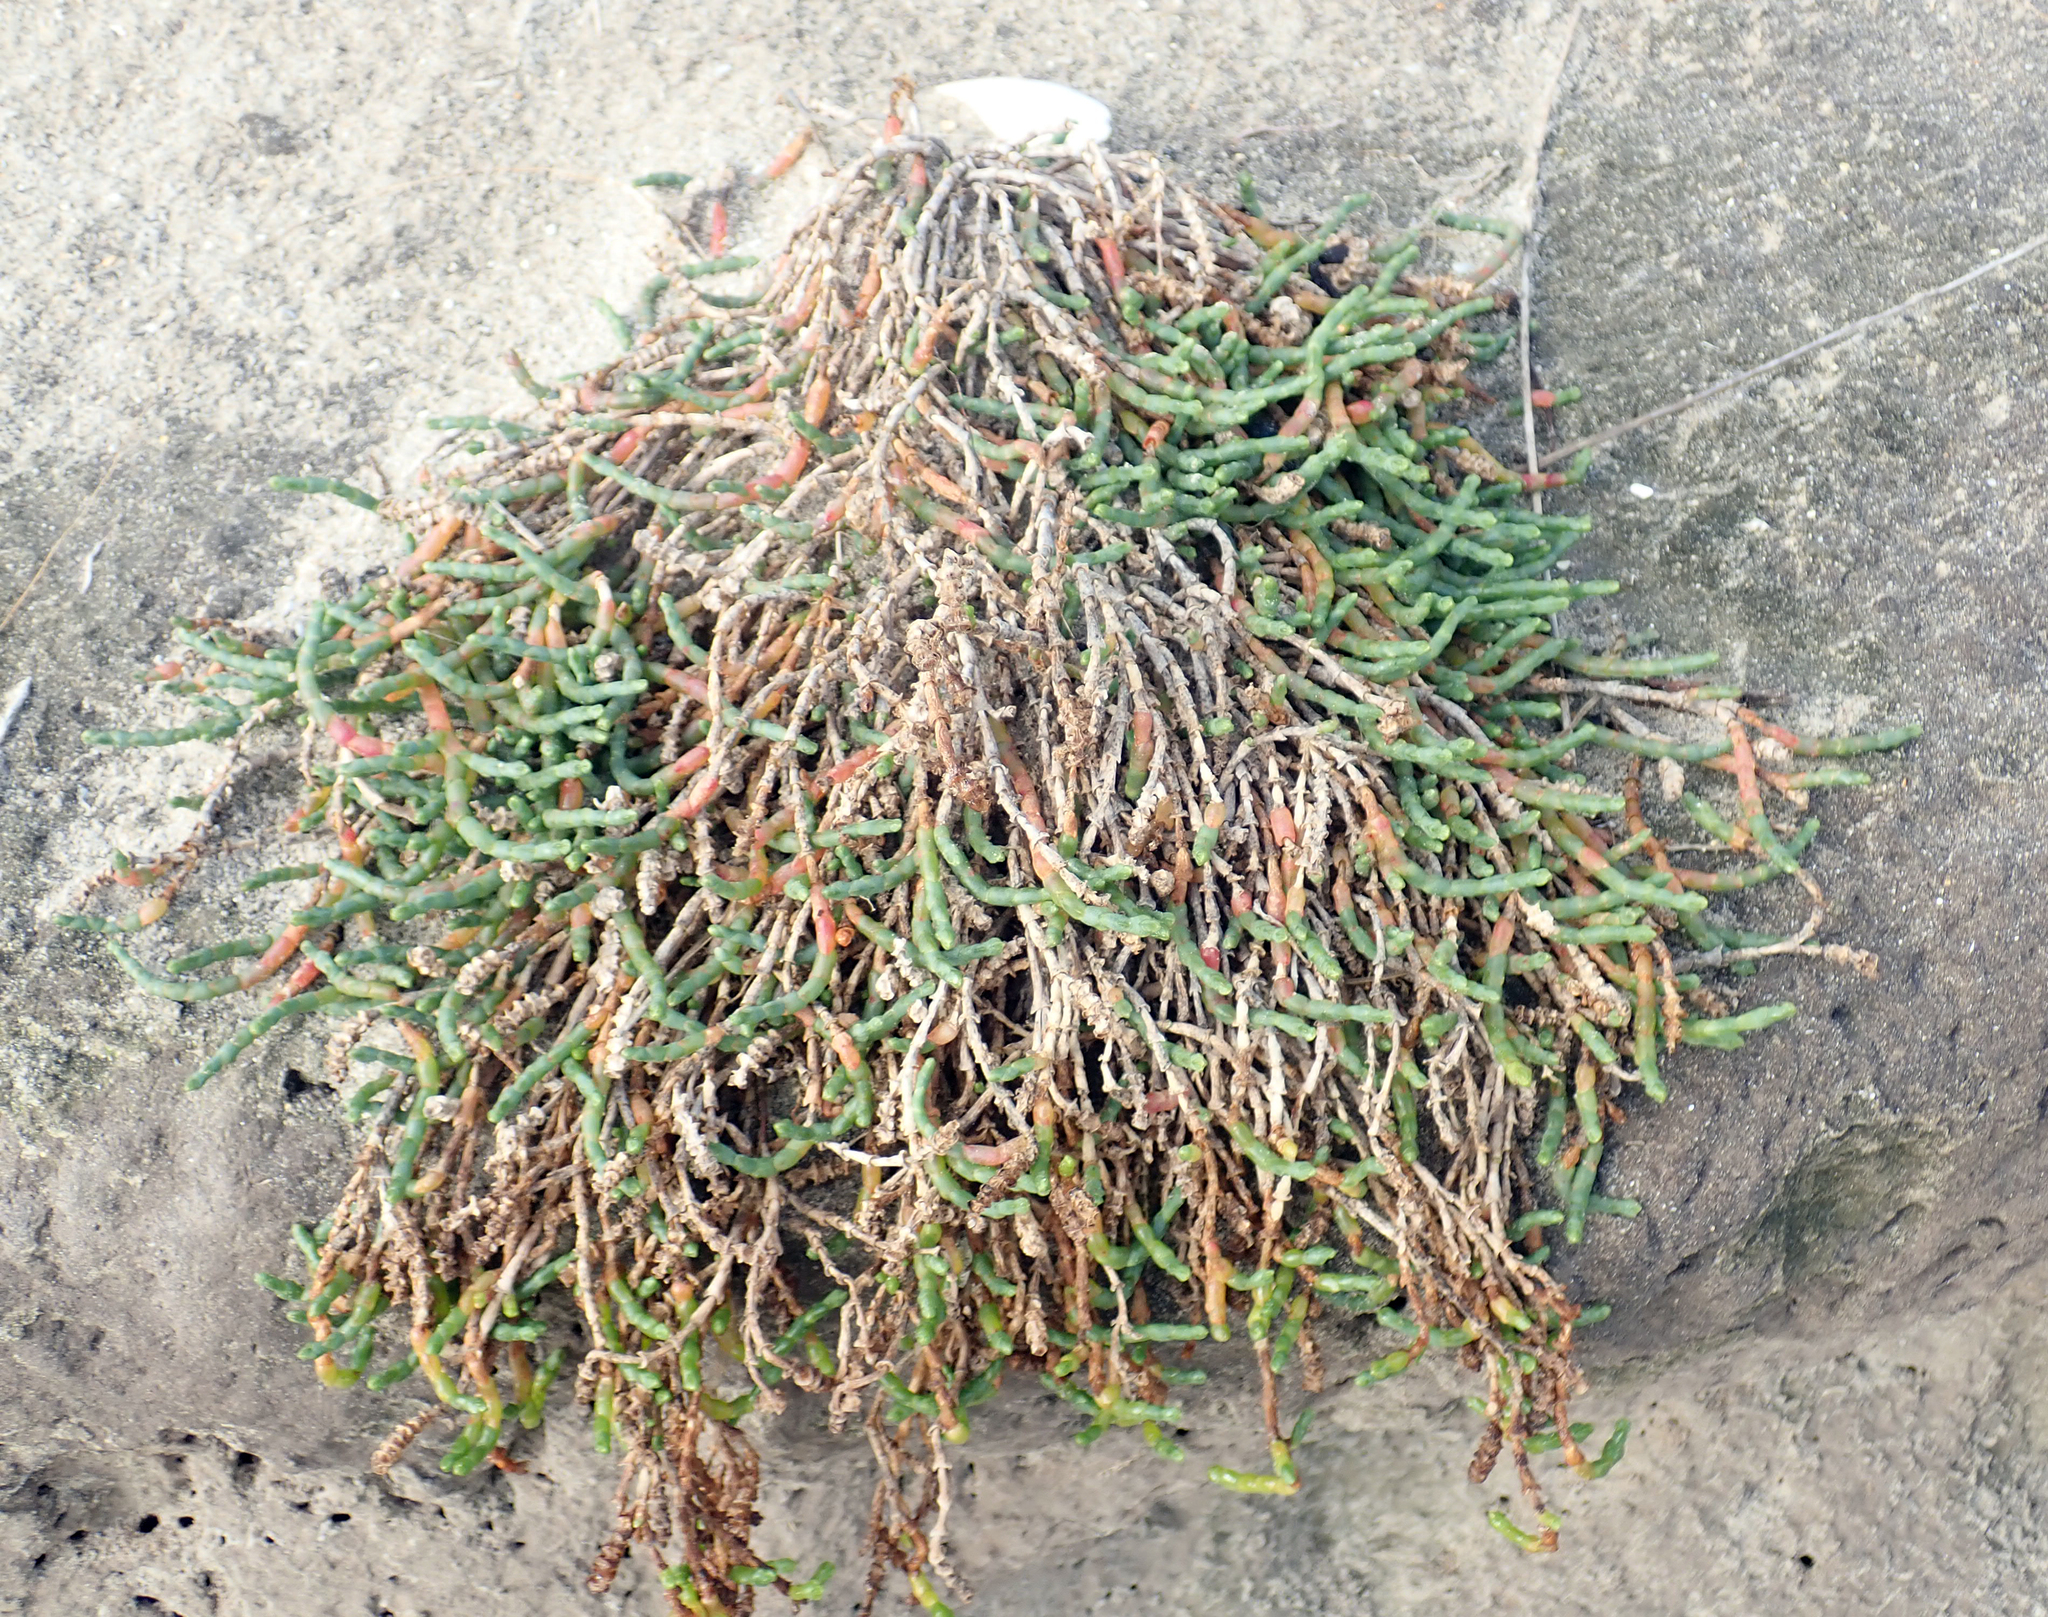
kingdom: Plantae
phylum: Tracheophyta
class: Magnoliopsida
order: Caryophyllales
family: Amaranthaceae
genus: Salicornia
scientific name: Salicornia quinqueflora
